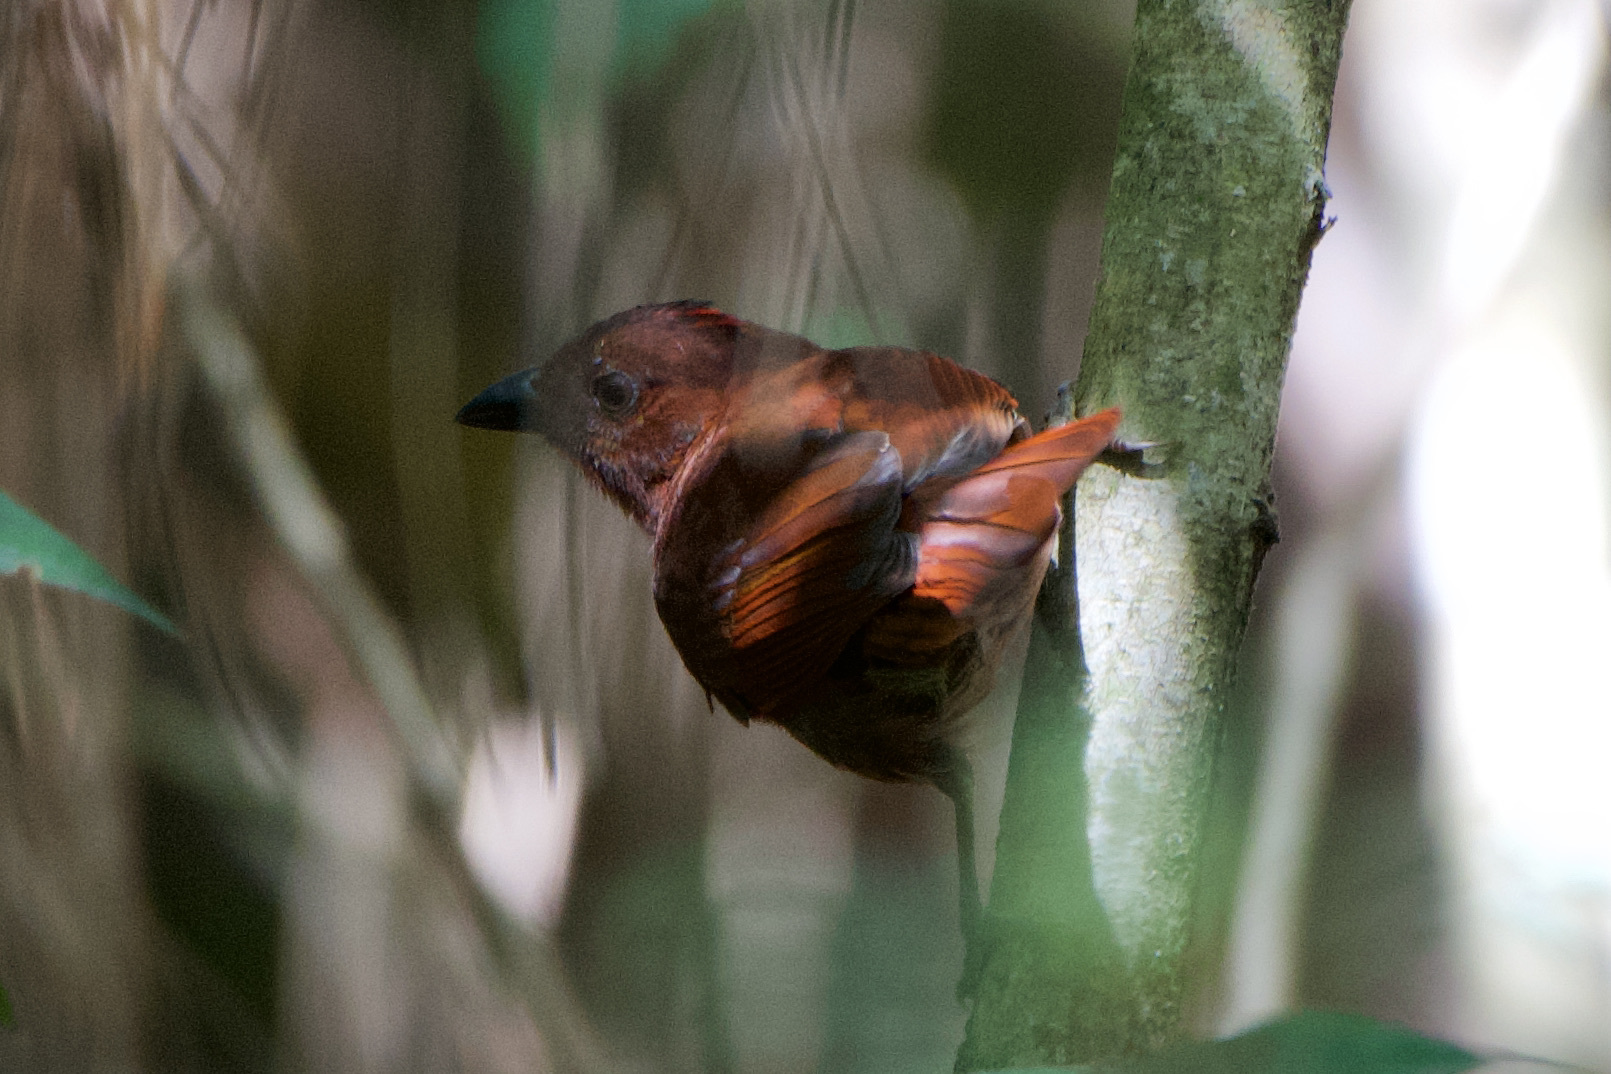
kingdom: Animalia
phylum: Chordata
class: Aves
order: Passeriformes
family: Cardinalidae
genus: Habia
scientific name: Habia rubica
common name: Red-crowned ant-tanager
